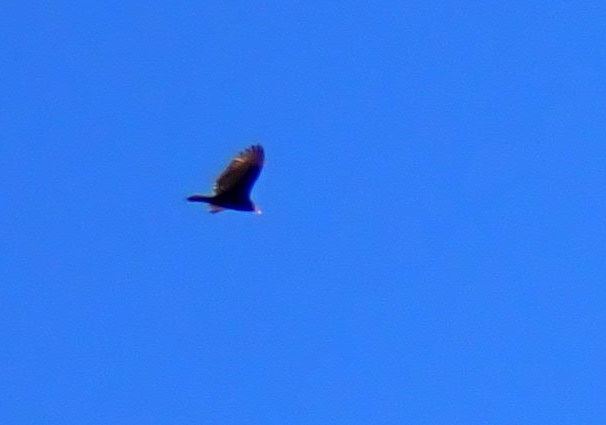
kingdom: Animalia
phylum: Chordata
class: Aves
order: Accipitriformes
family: Cathartidae
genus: Cathartes
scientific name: Cathartes aura
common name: Turkey vulture
